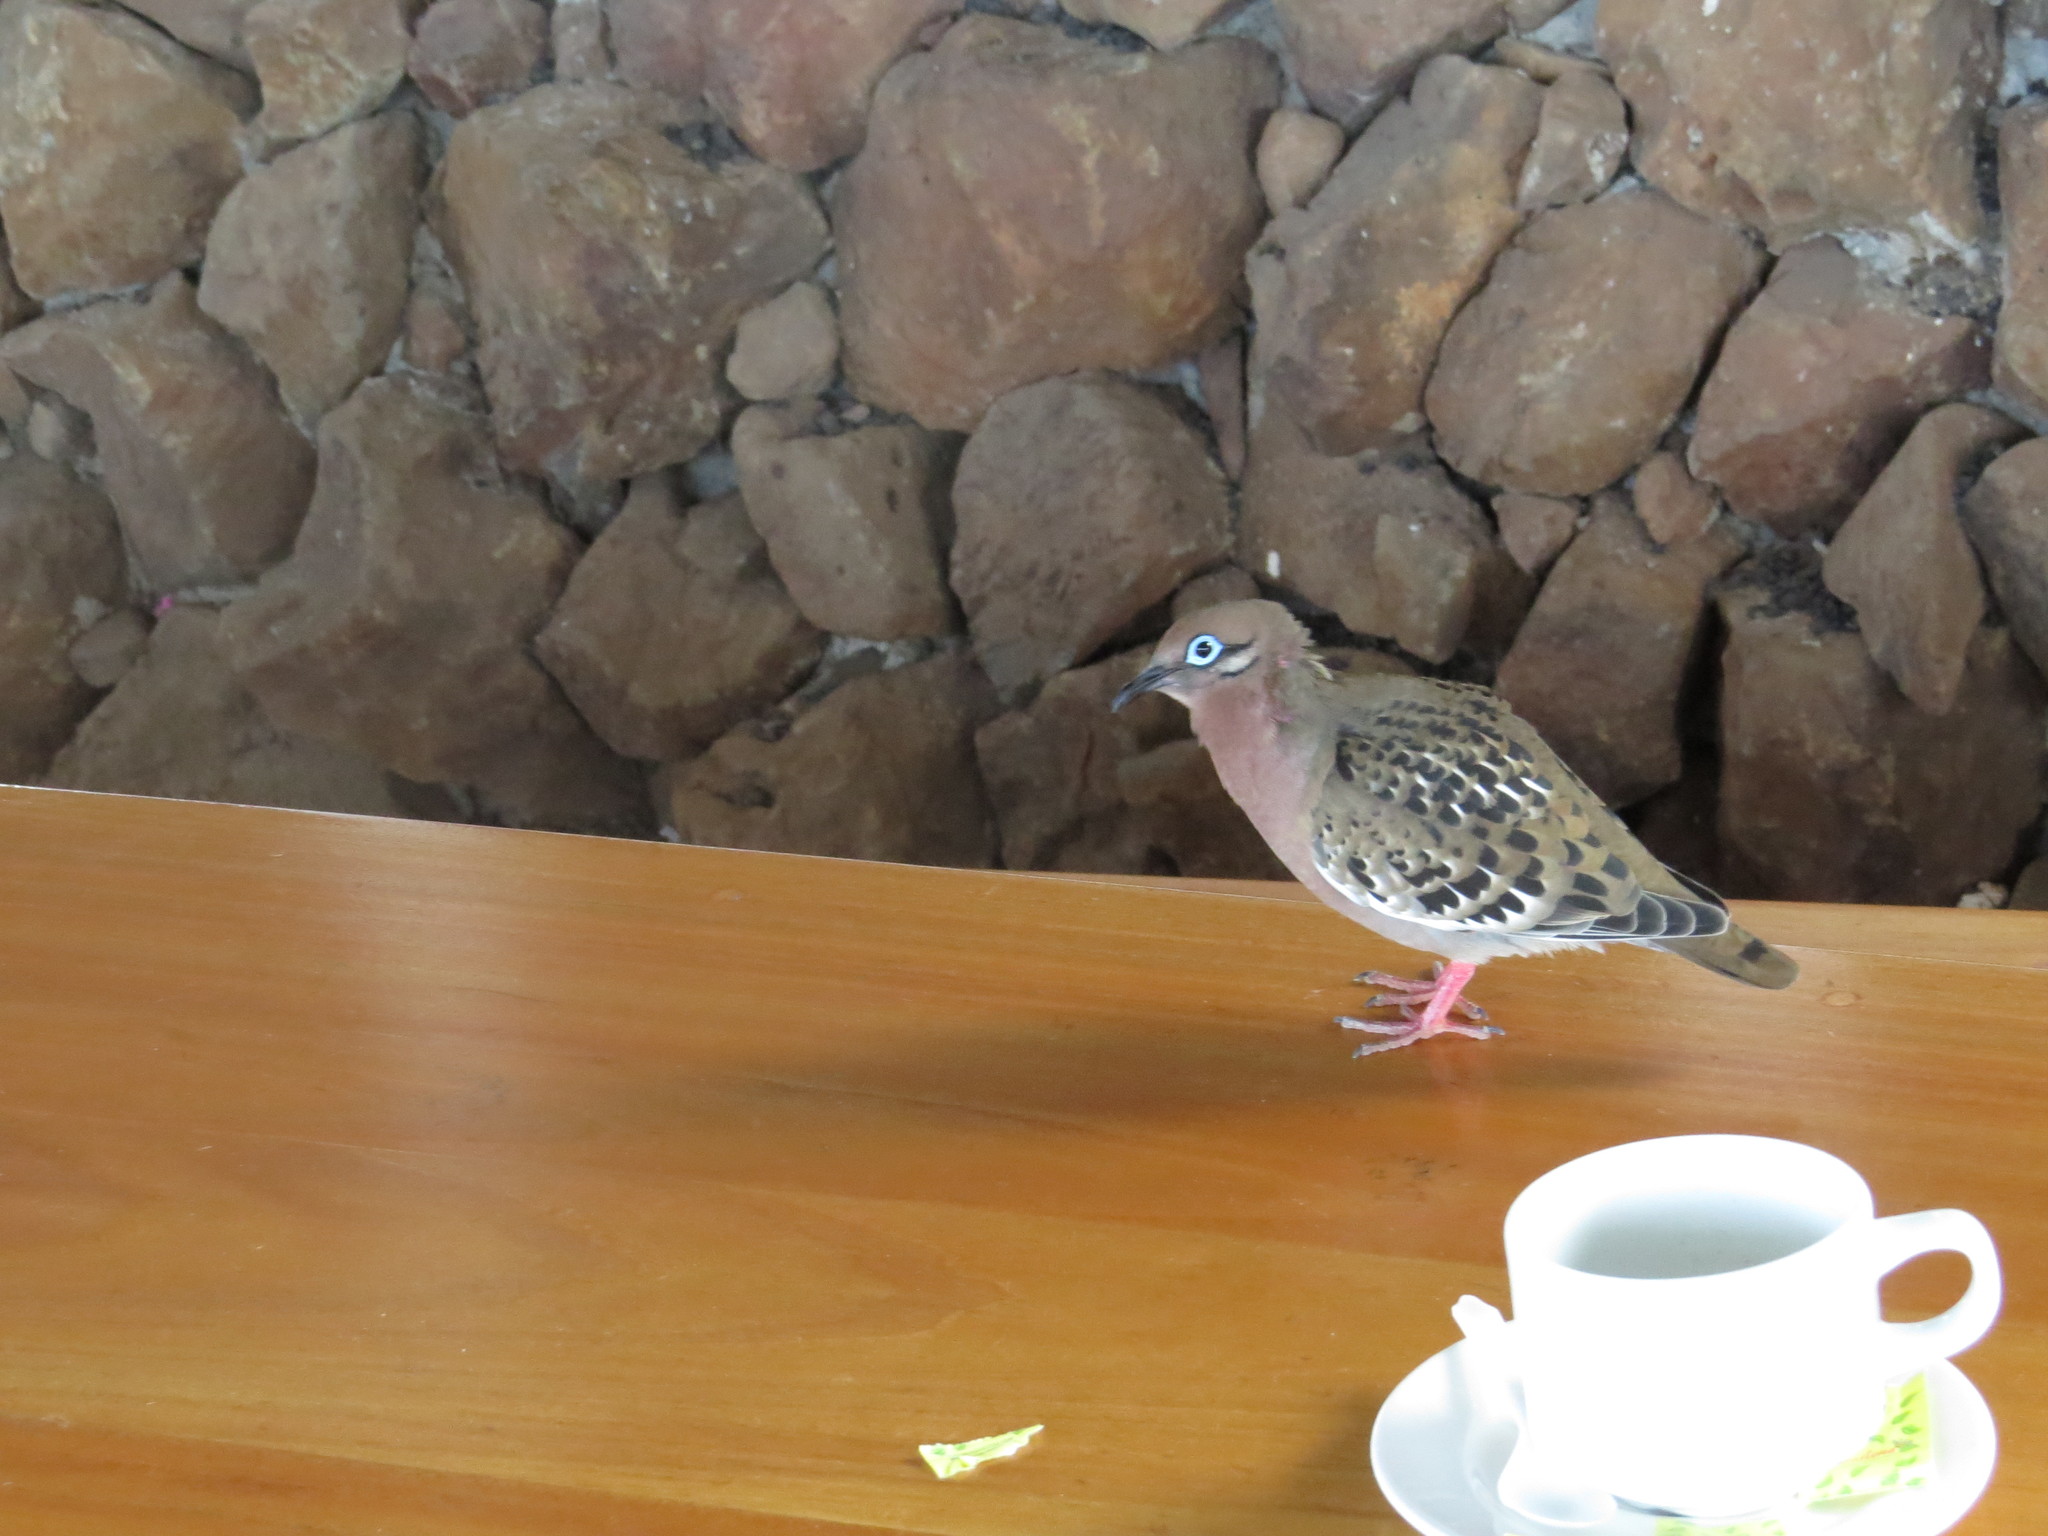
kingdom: Animalia
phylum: Chordata
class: Aves
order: Columbiformes
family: Columbidae
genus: Zenaida
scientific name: Zenaida galapagoensis
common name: Galapagos dove
